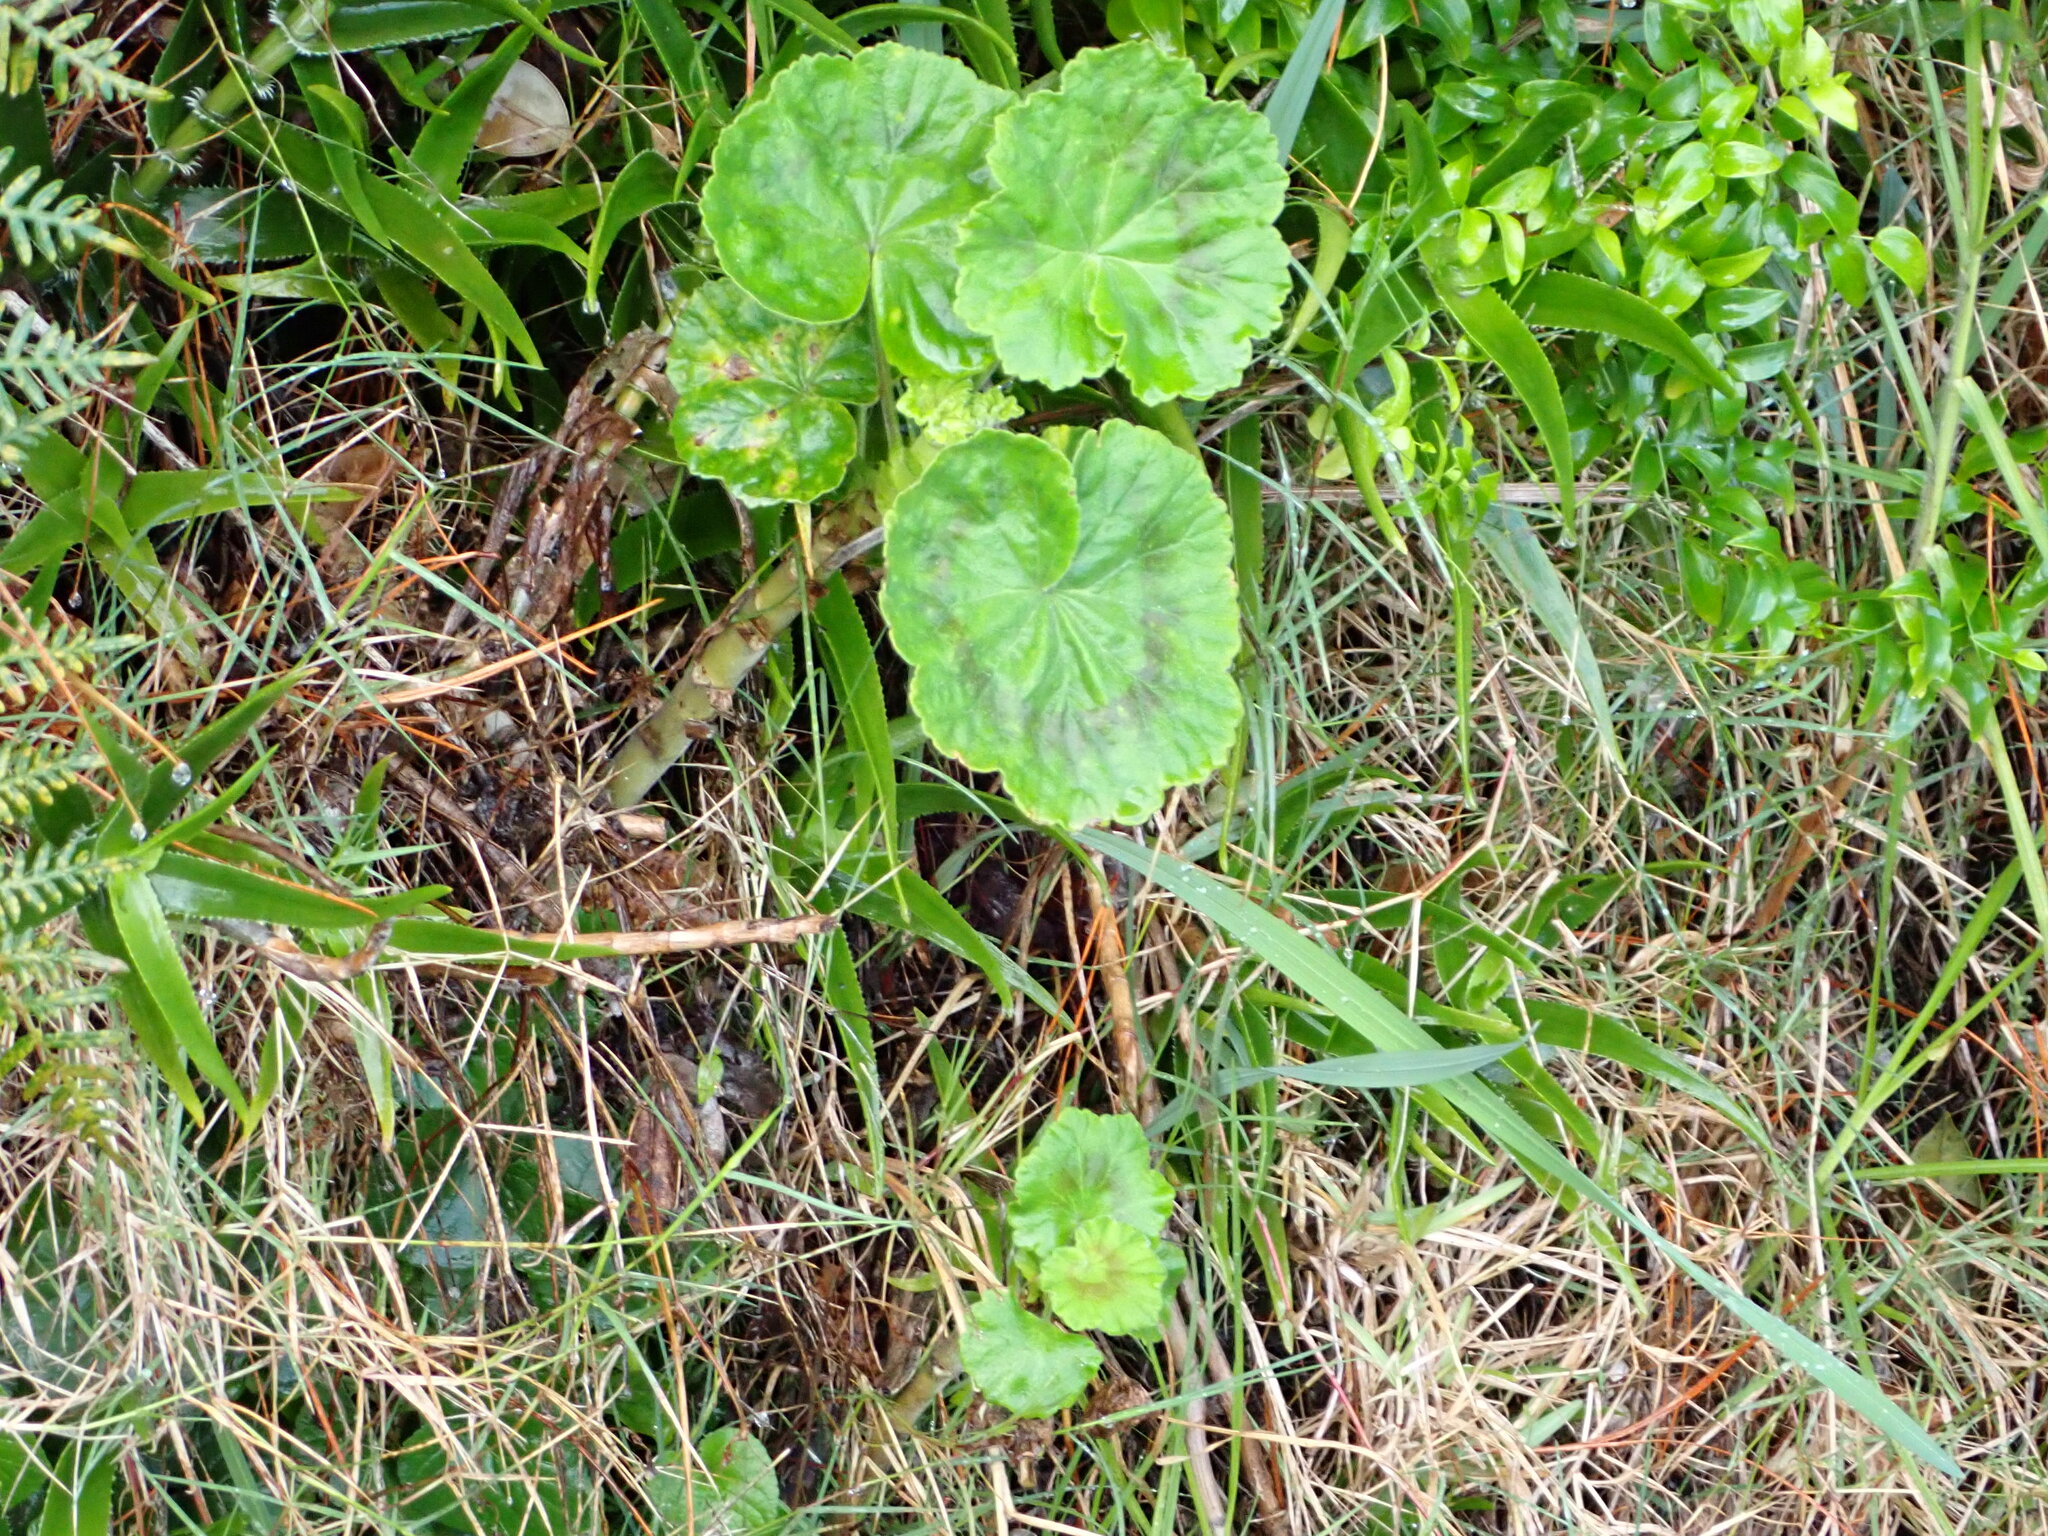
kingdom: Plantae
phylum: Tracheophyta
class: Magnoliopsida
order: Geraniales
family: Geraniaceae
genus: Pelargonium
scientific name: Pelargonium hybridum
